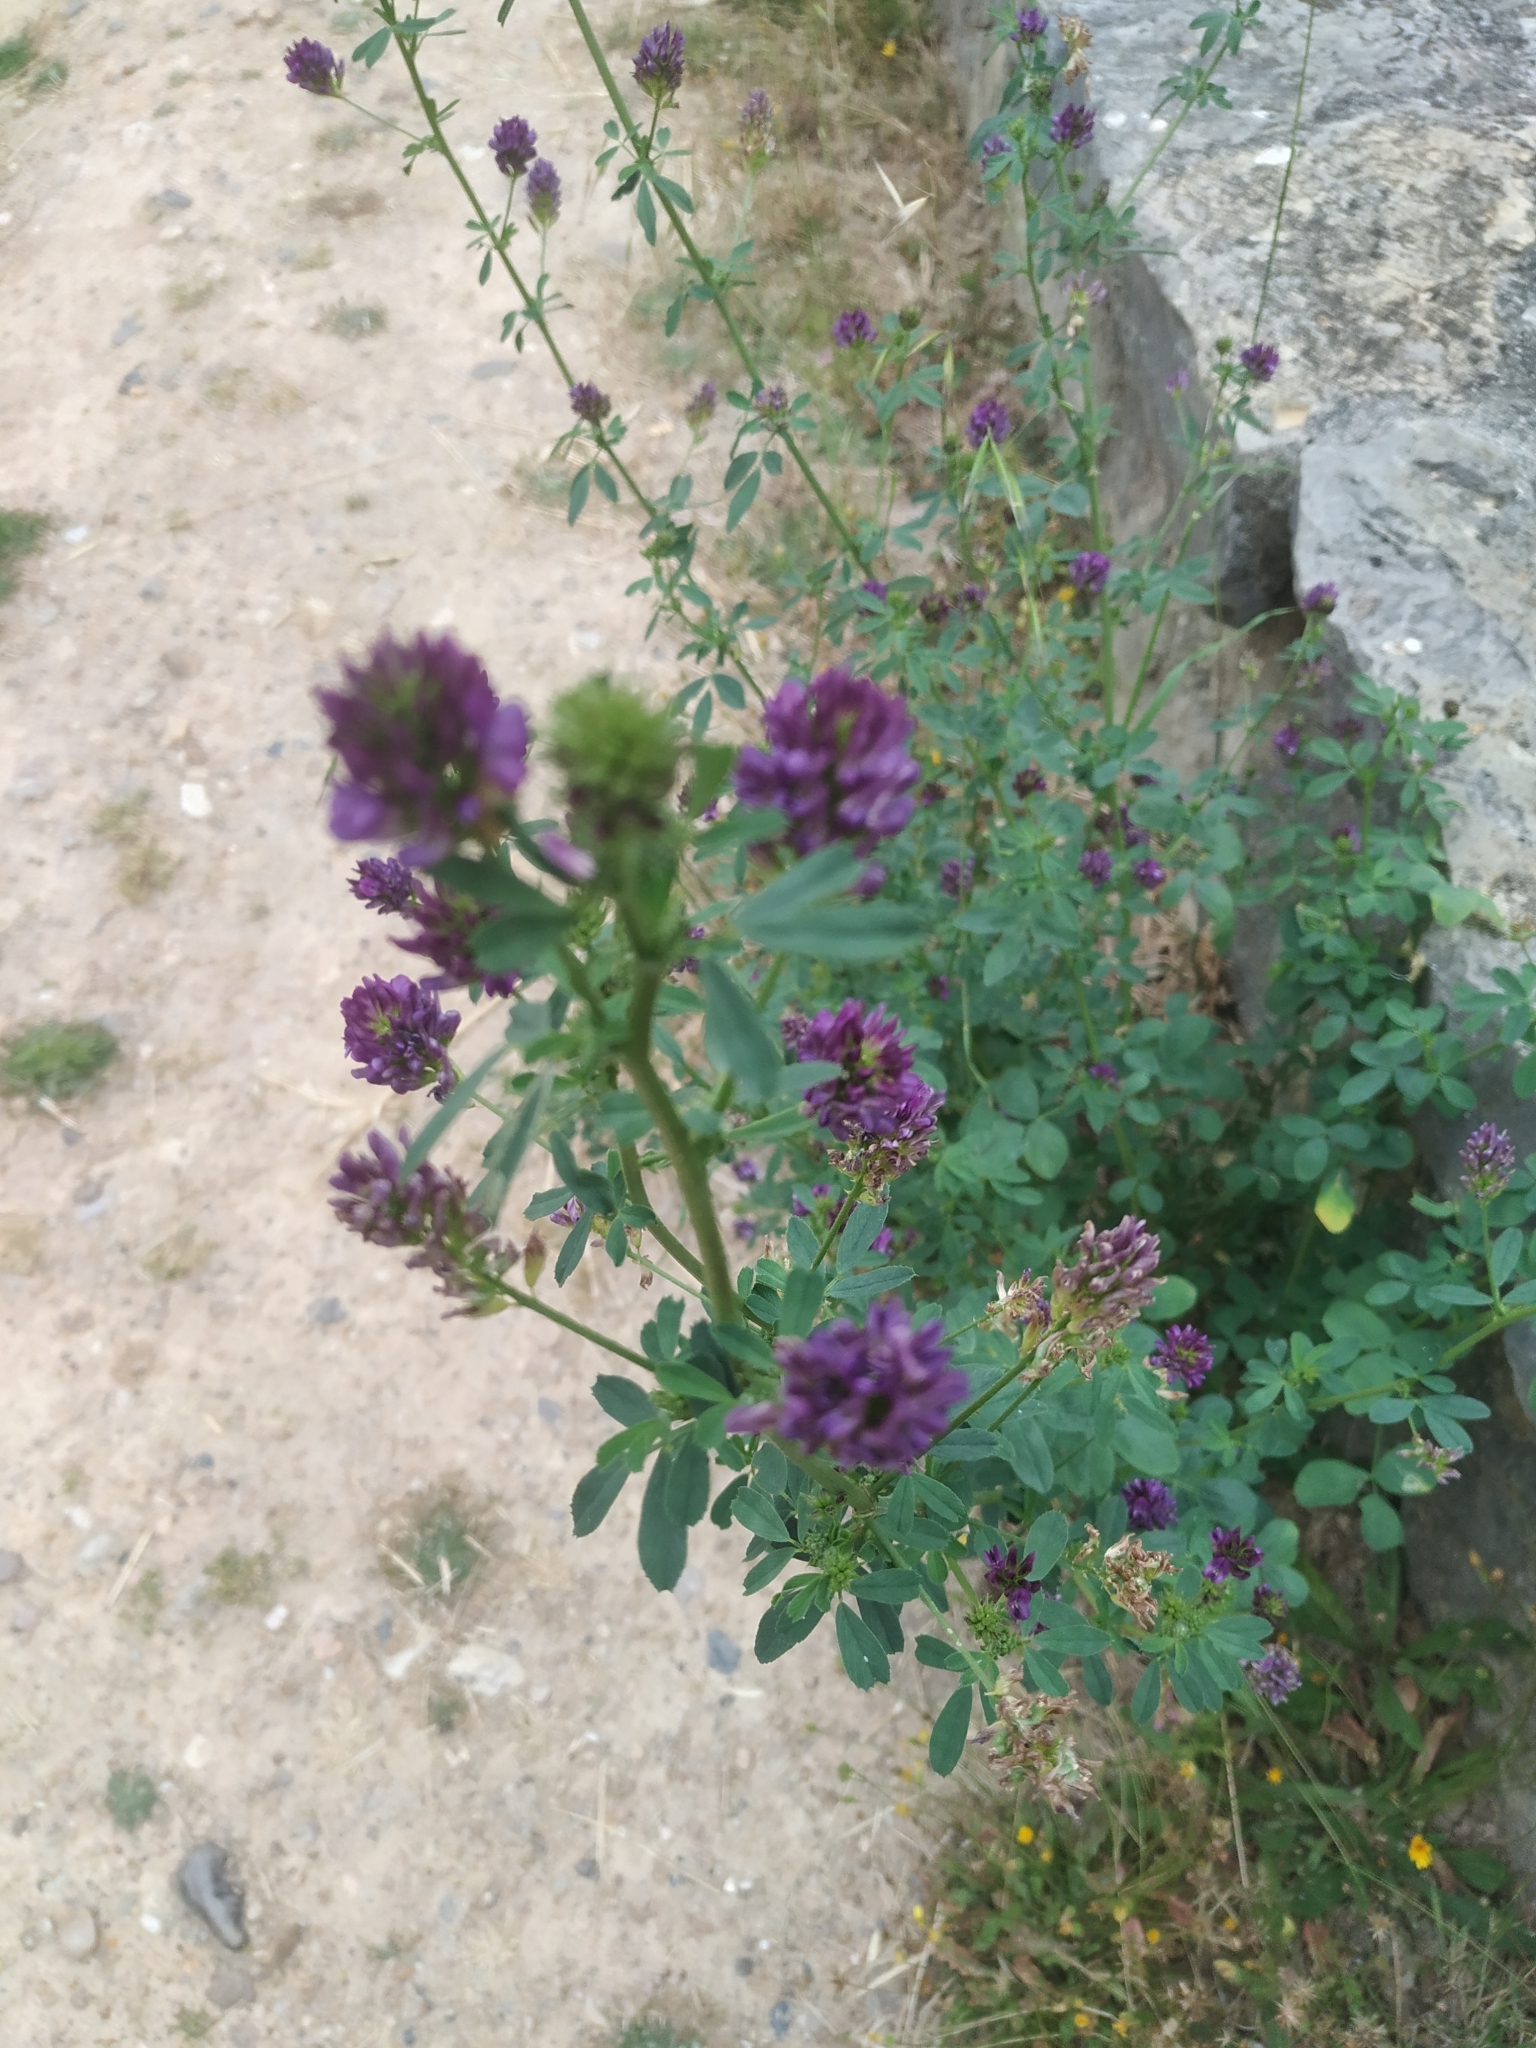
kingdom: Plantae
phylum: Tracheophyta
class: Magnoliopsida
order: Fabales
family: Fabaceae
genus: Medicago
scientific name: Medicago sativa
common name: Alfalfa
